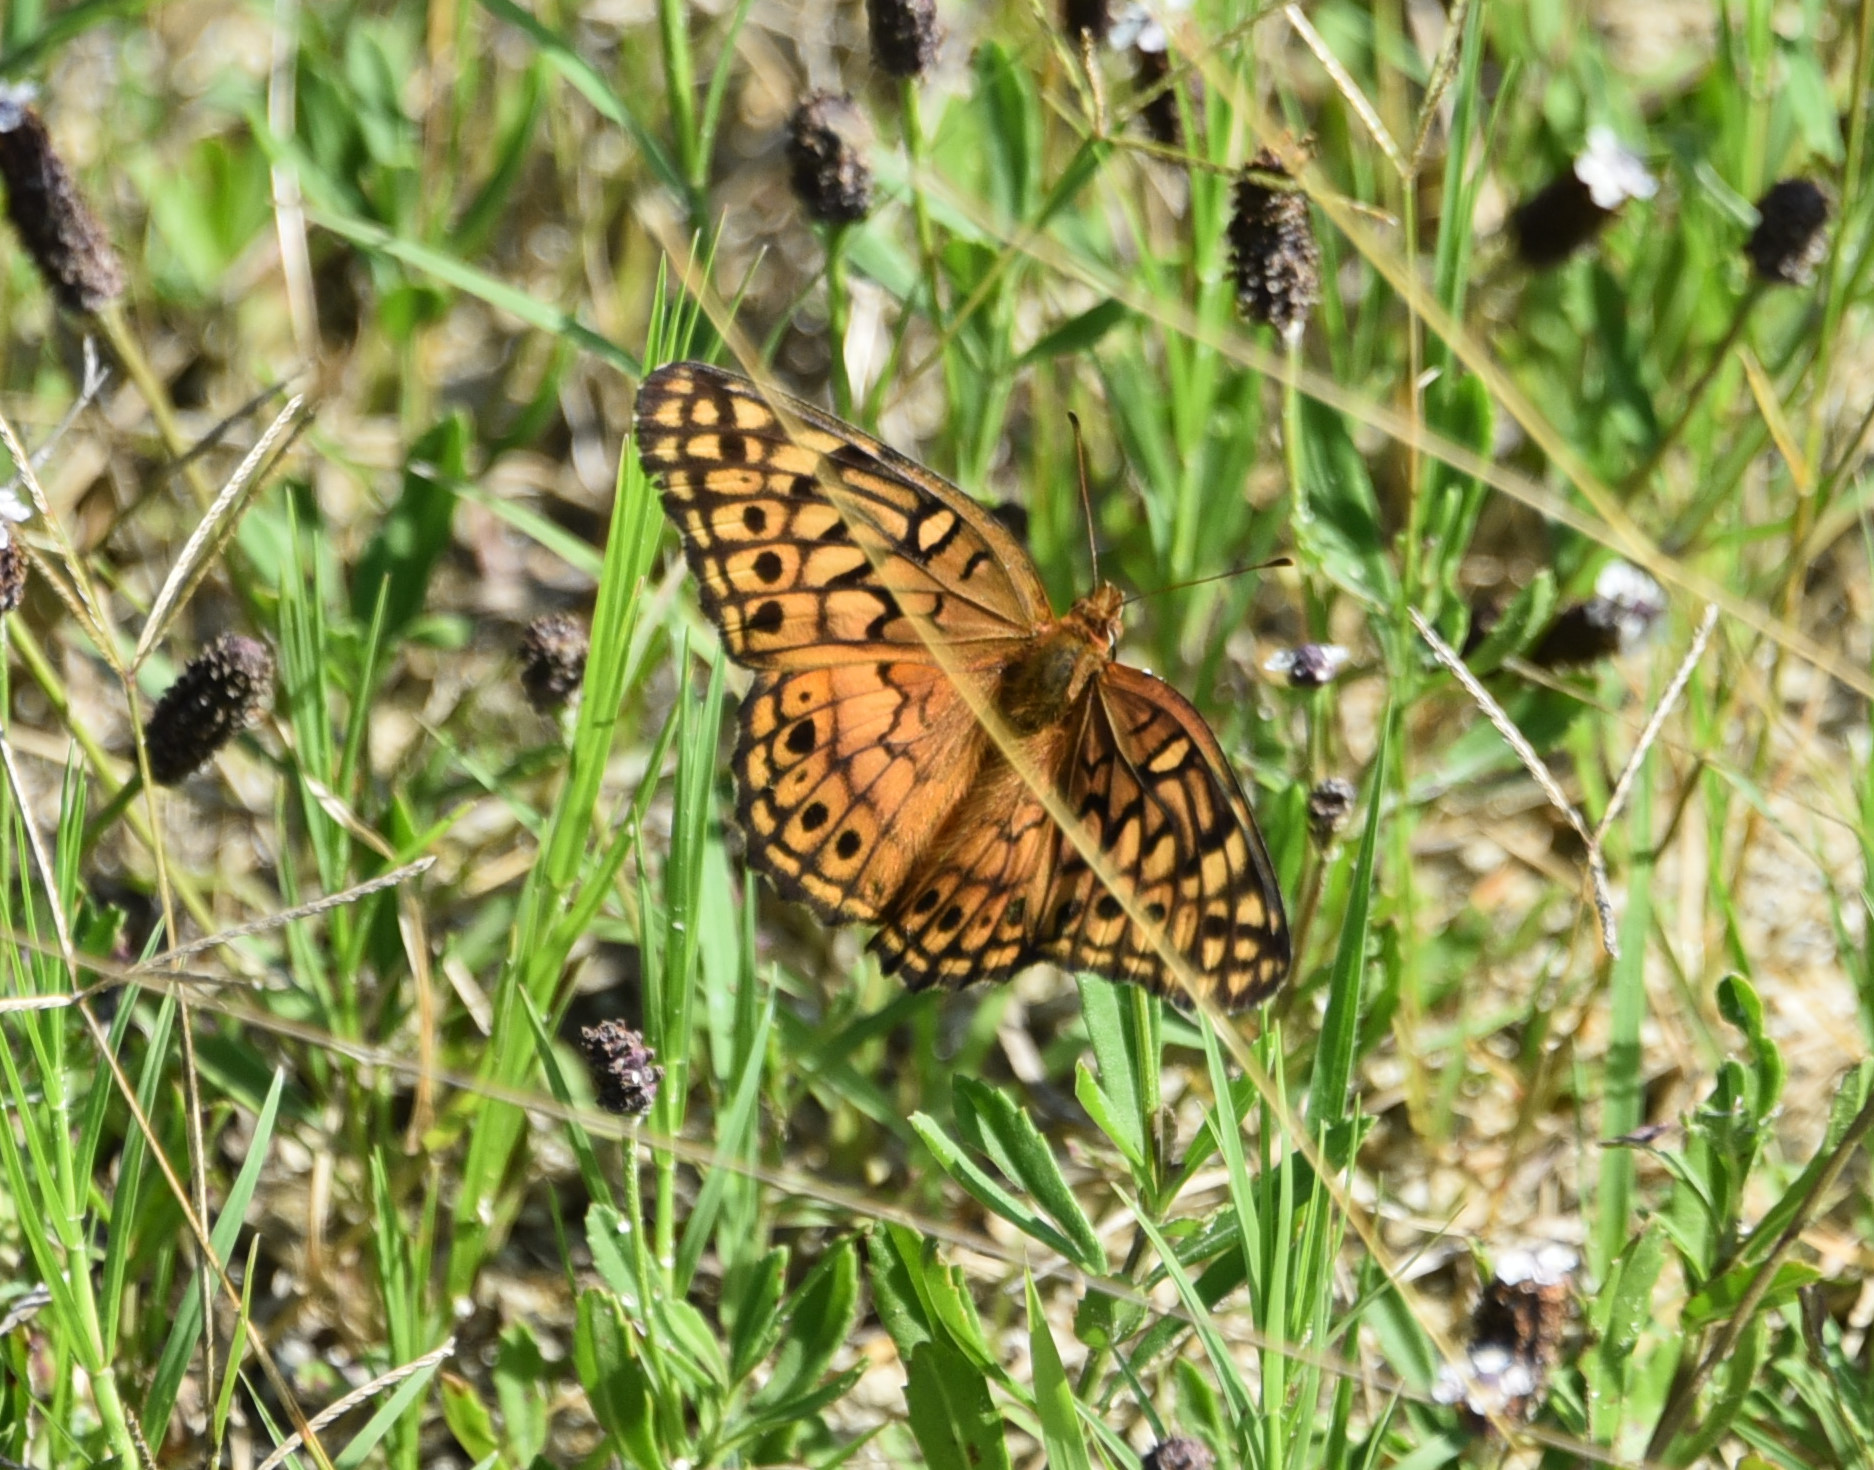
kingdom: Animalia
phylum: Arthropoda
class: Insecta
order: Lepidoptera
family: Nymphalidae
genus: Euptoieta
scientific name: Euptoieta claudia
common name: Variegated fritillary
